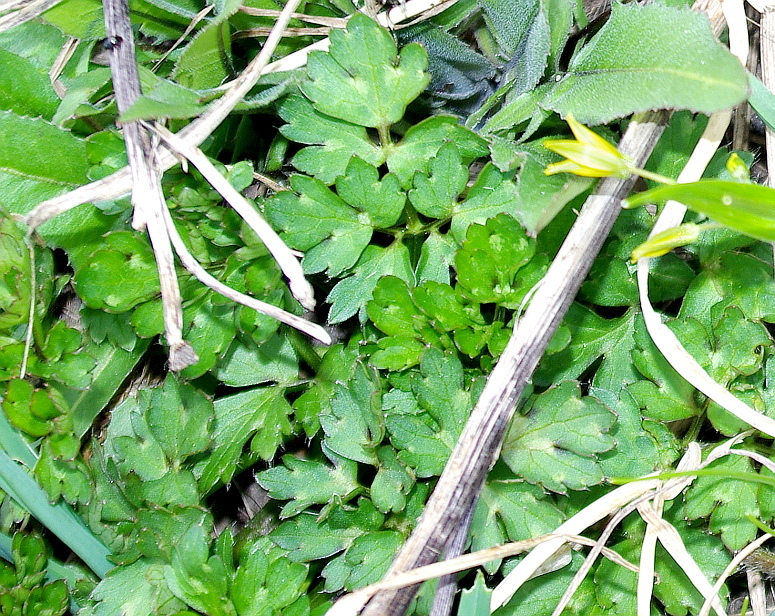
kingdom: Plantae
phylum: Tracheophyta
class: Magnoliopsida
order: Ranunculales
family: Ranunculaceae
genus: Ranunculus
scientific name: Ranunculus repens
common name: Creeping buttercup
